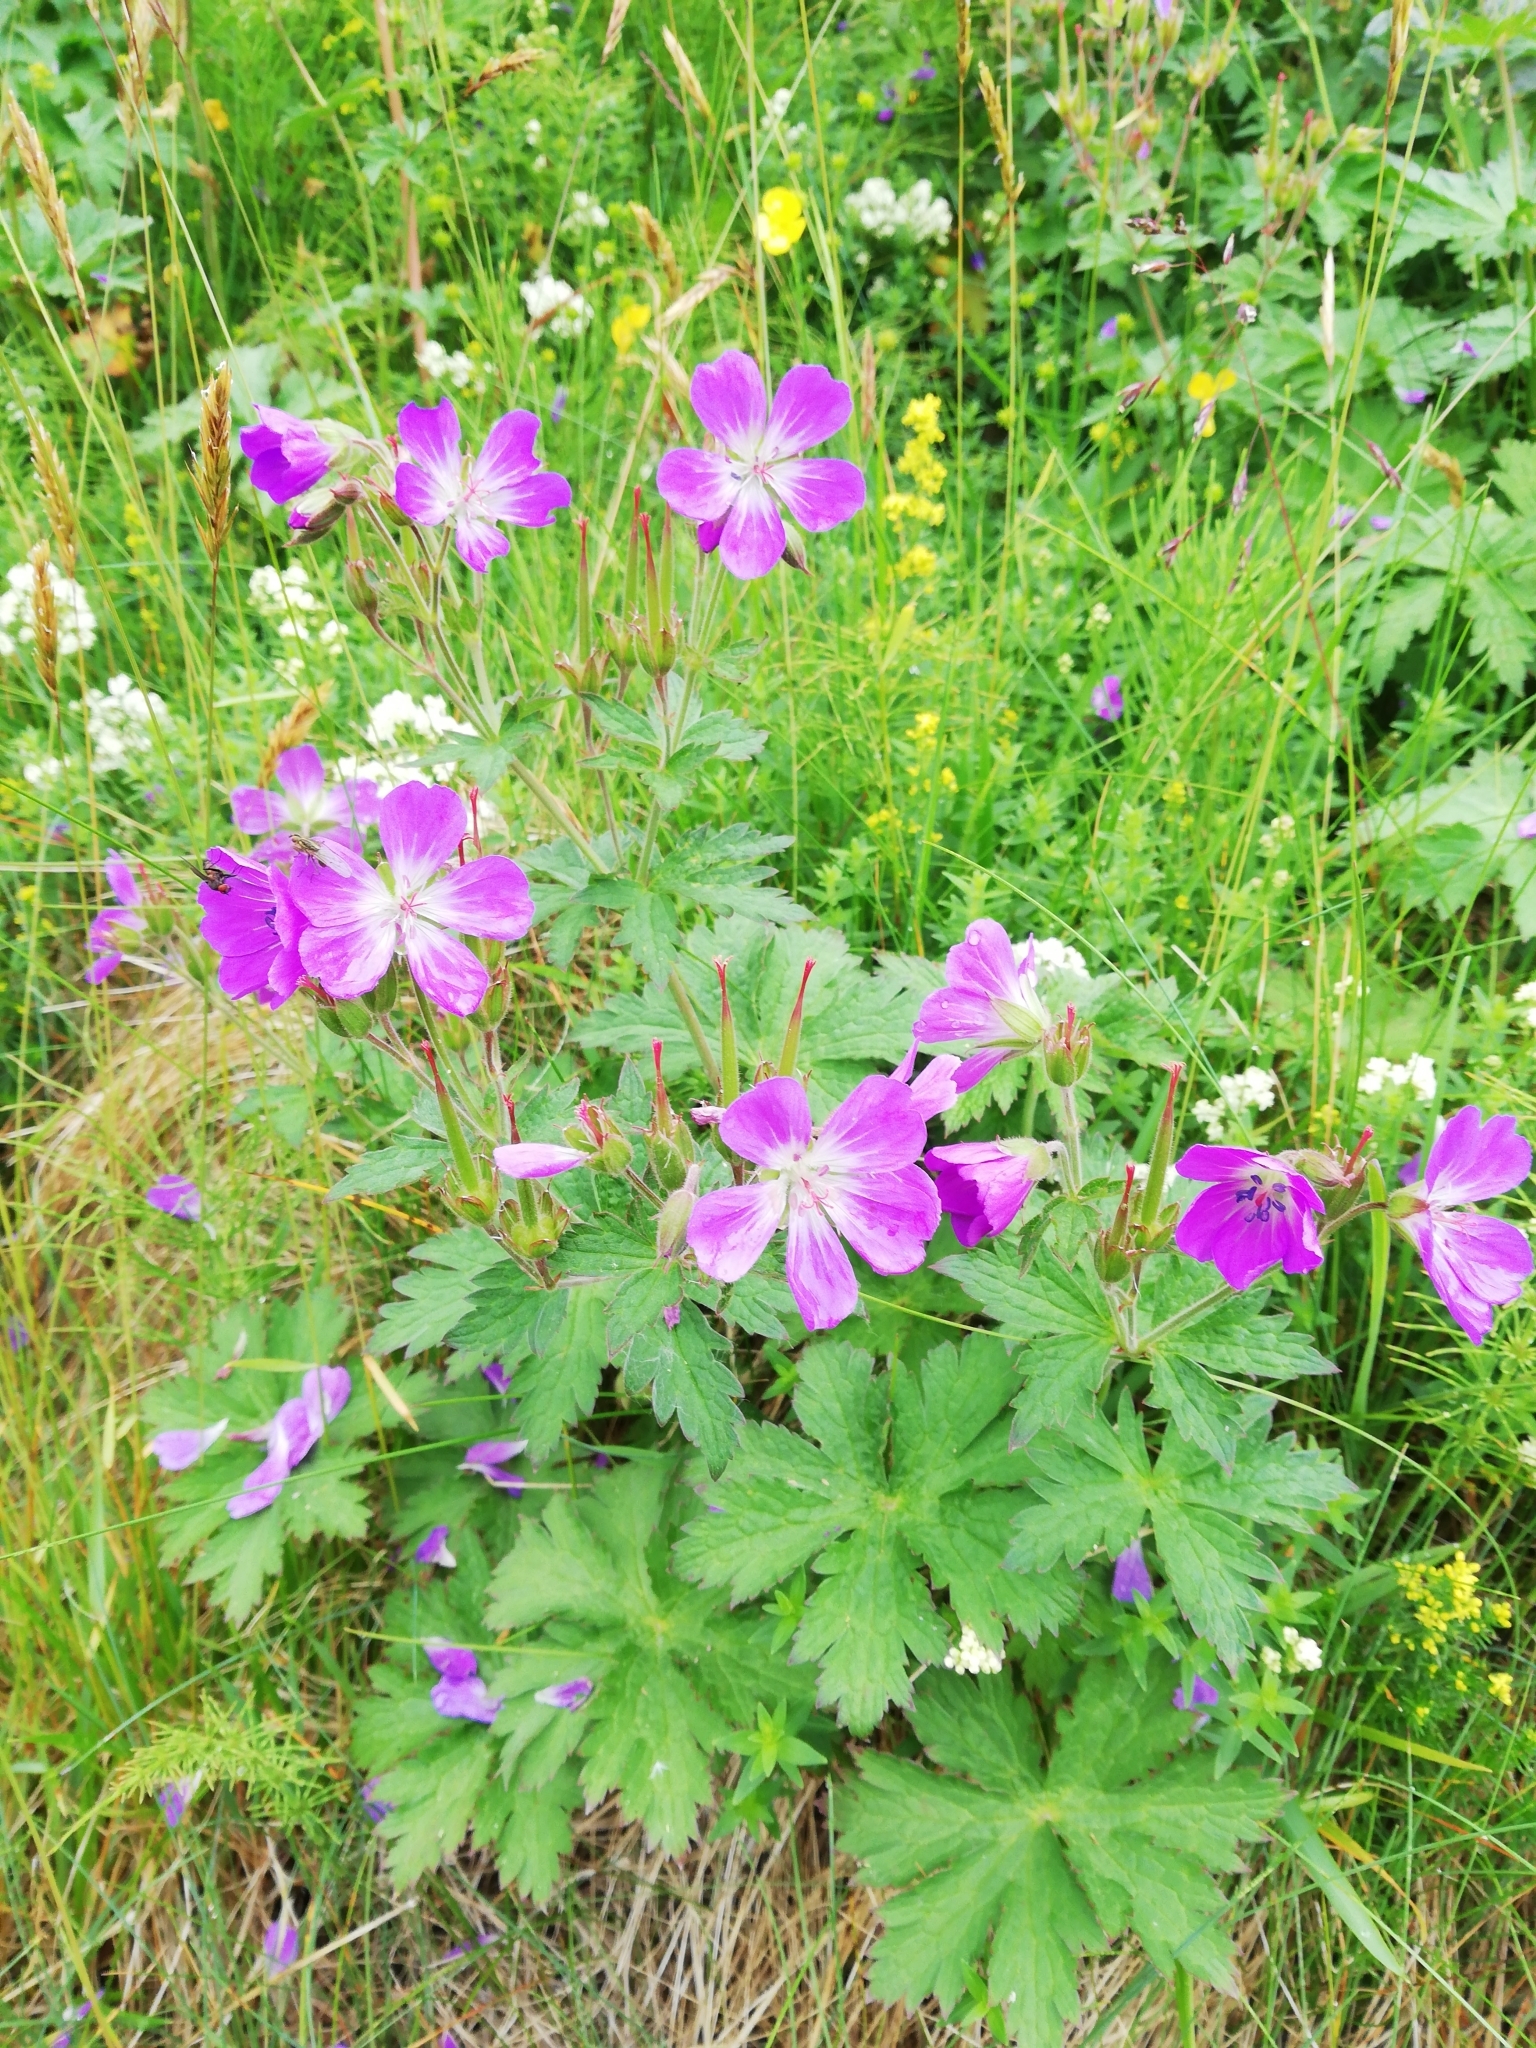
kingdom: Plantae
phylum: Tracheophyta
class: Magnoliopsida
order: Geraniales
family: Geraniaceae
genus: Geranium
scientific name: Geranium sylvaticum
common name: Wood crane's-bill
